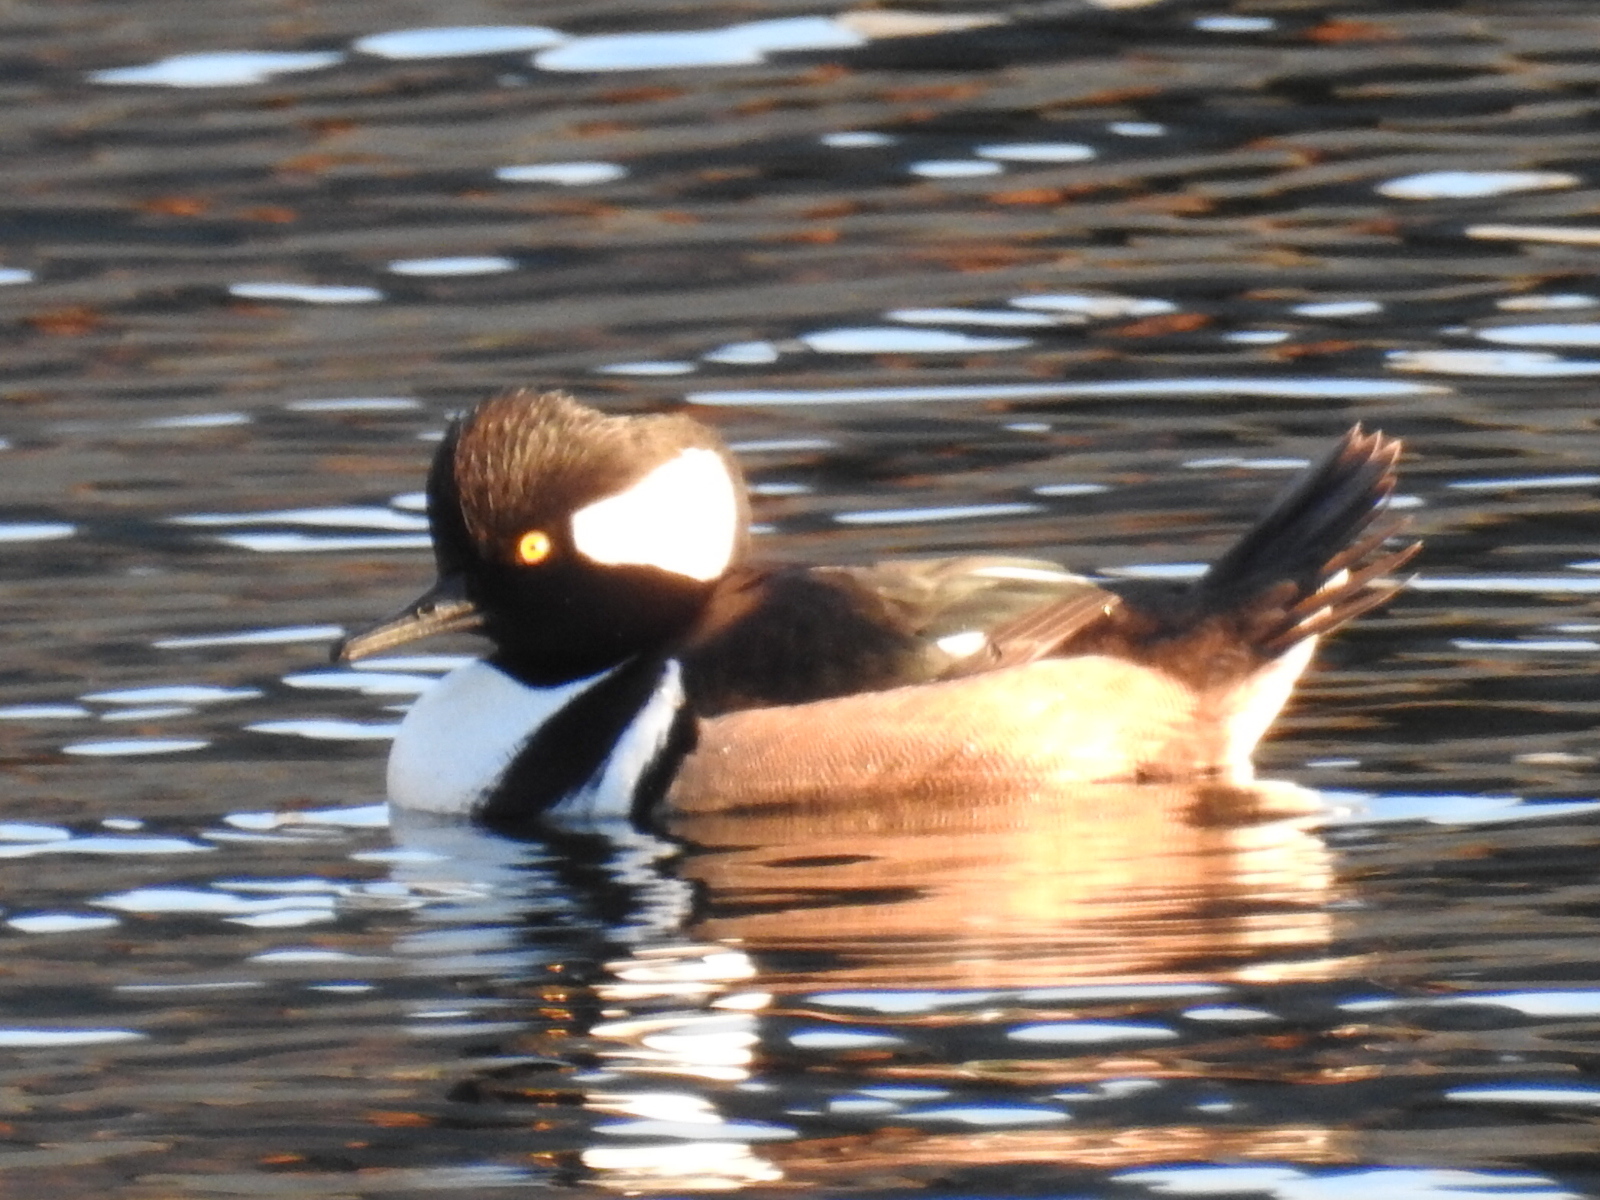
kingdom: Animalia
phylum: Chordata
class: Aves
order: Anseriformes
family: Anatidae
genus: Lophodytes
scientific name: Lophodytes cucullatus
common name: Hooded merganser
